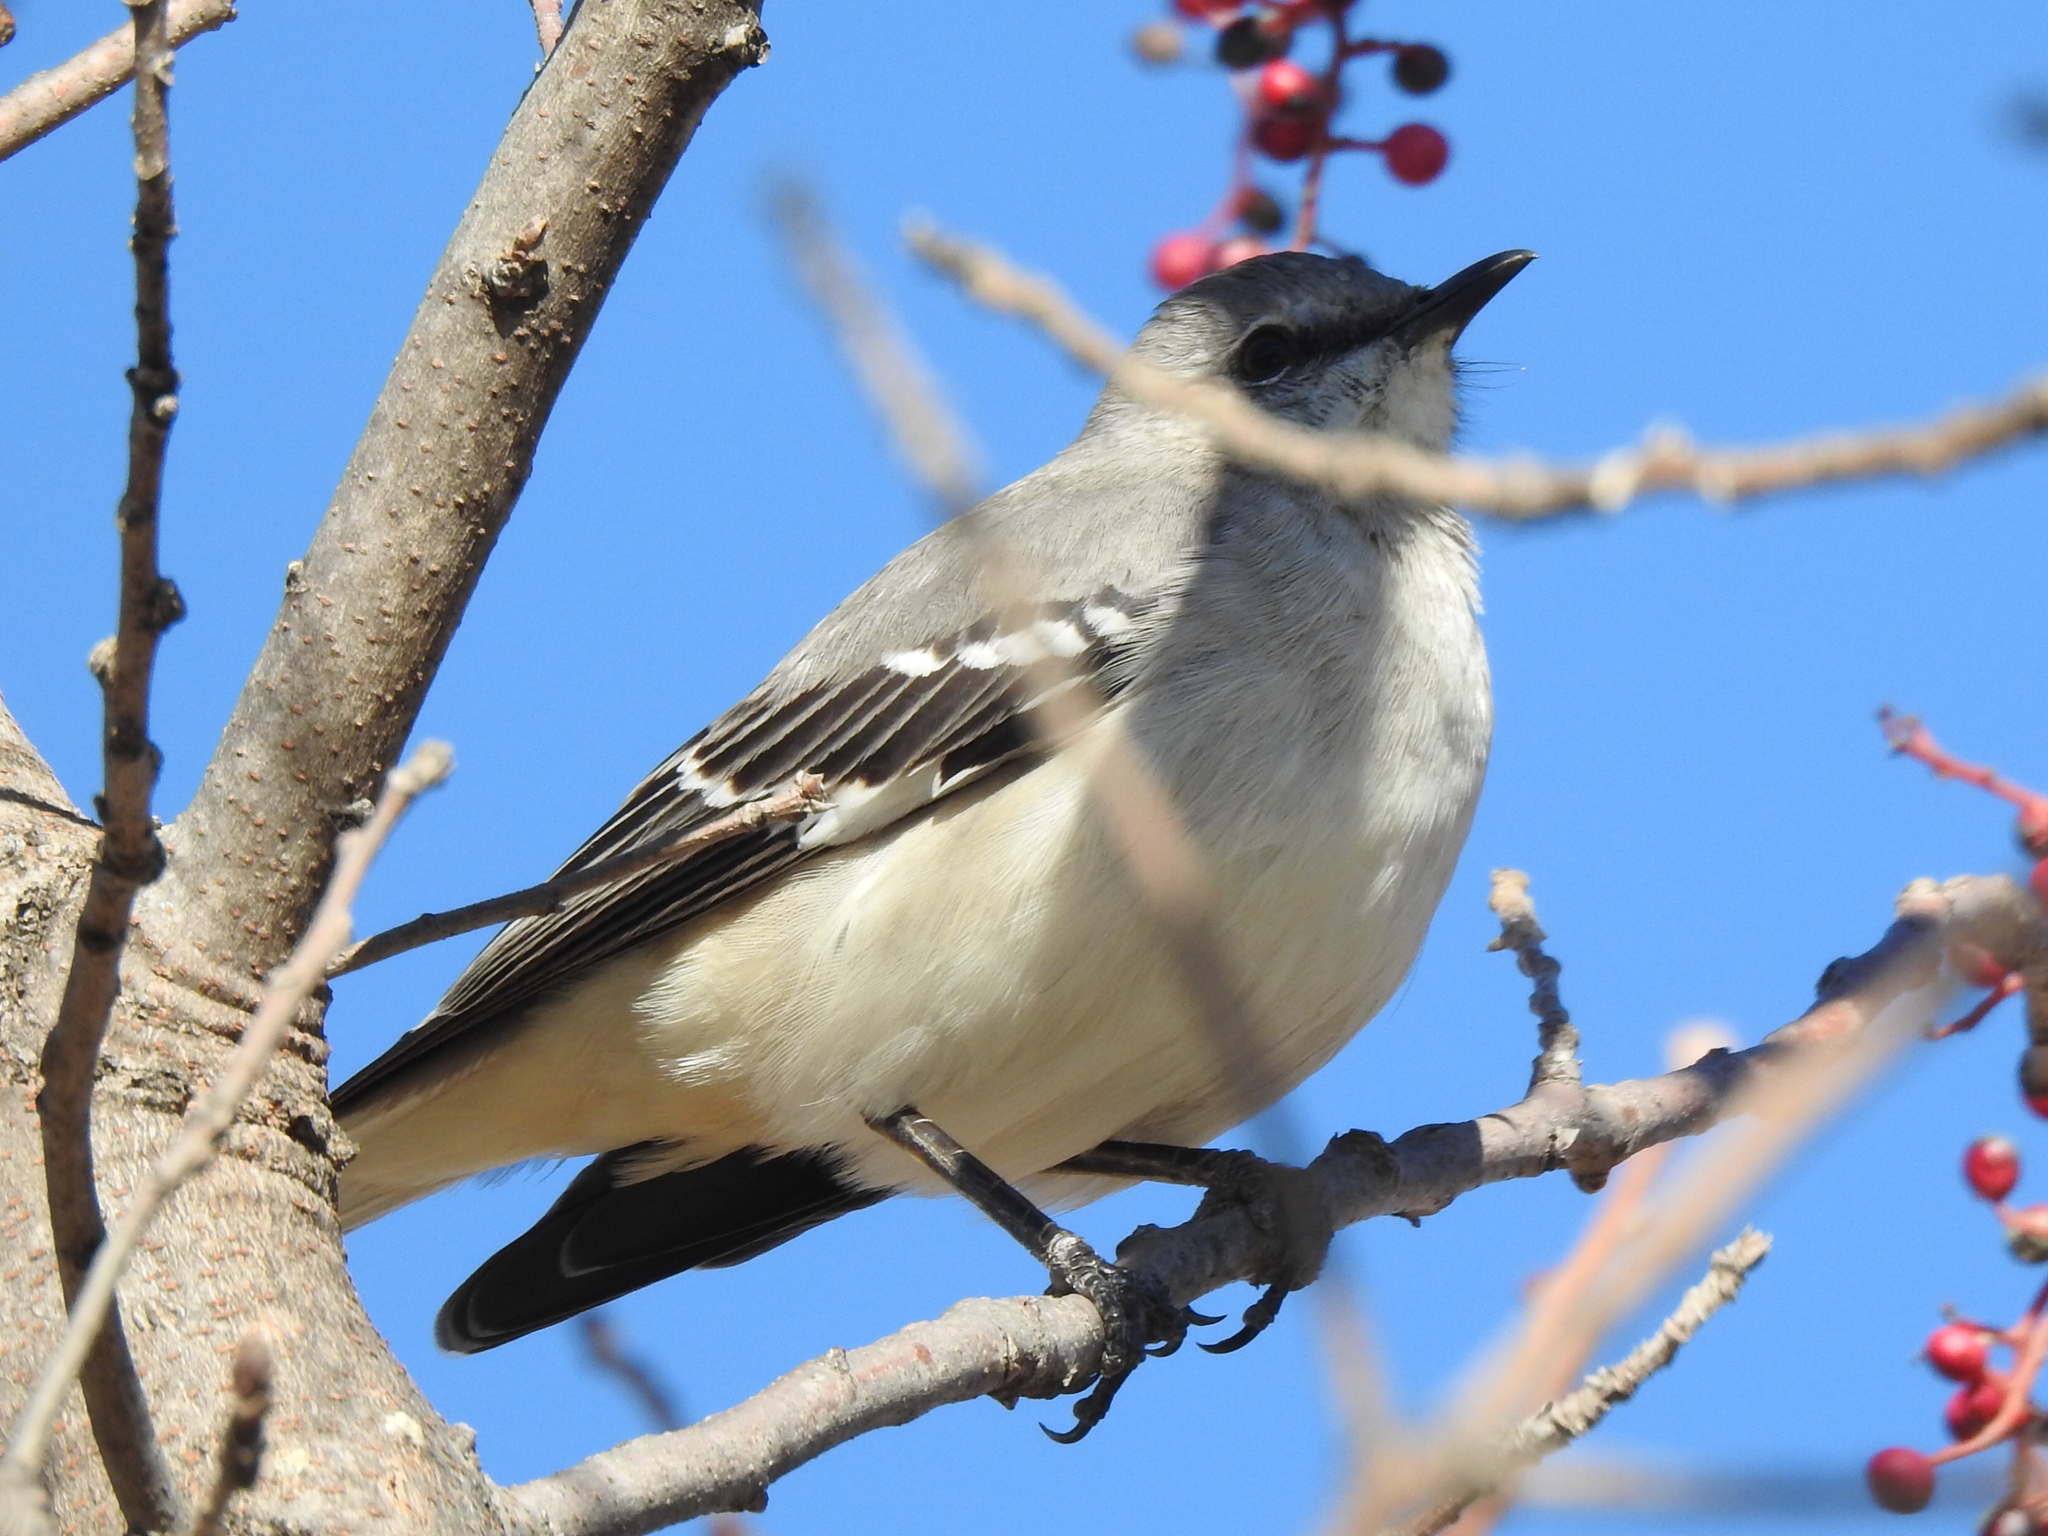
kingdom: Animalia
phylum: Chordata
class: Aves
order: Passeriformes
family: Mimidae
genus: Mimus
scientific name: Mimus polyglottos
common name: Northern mockingbird
